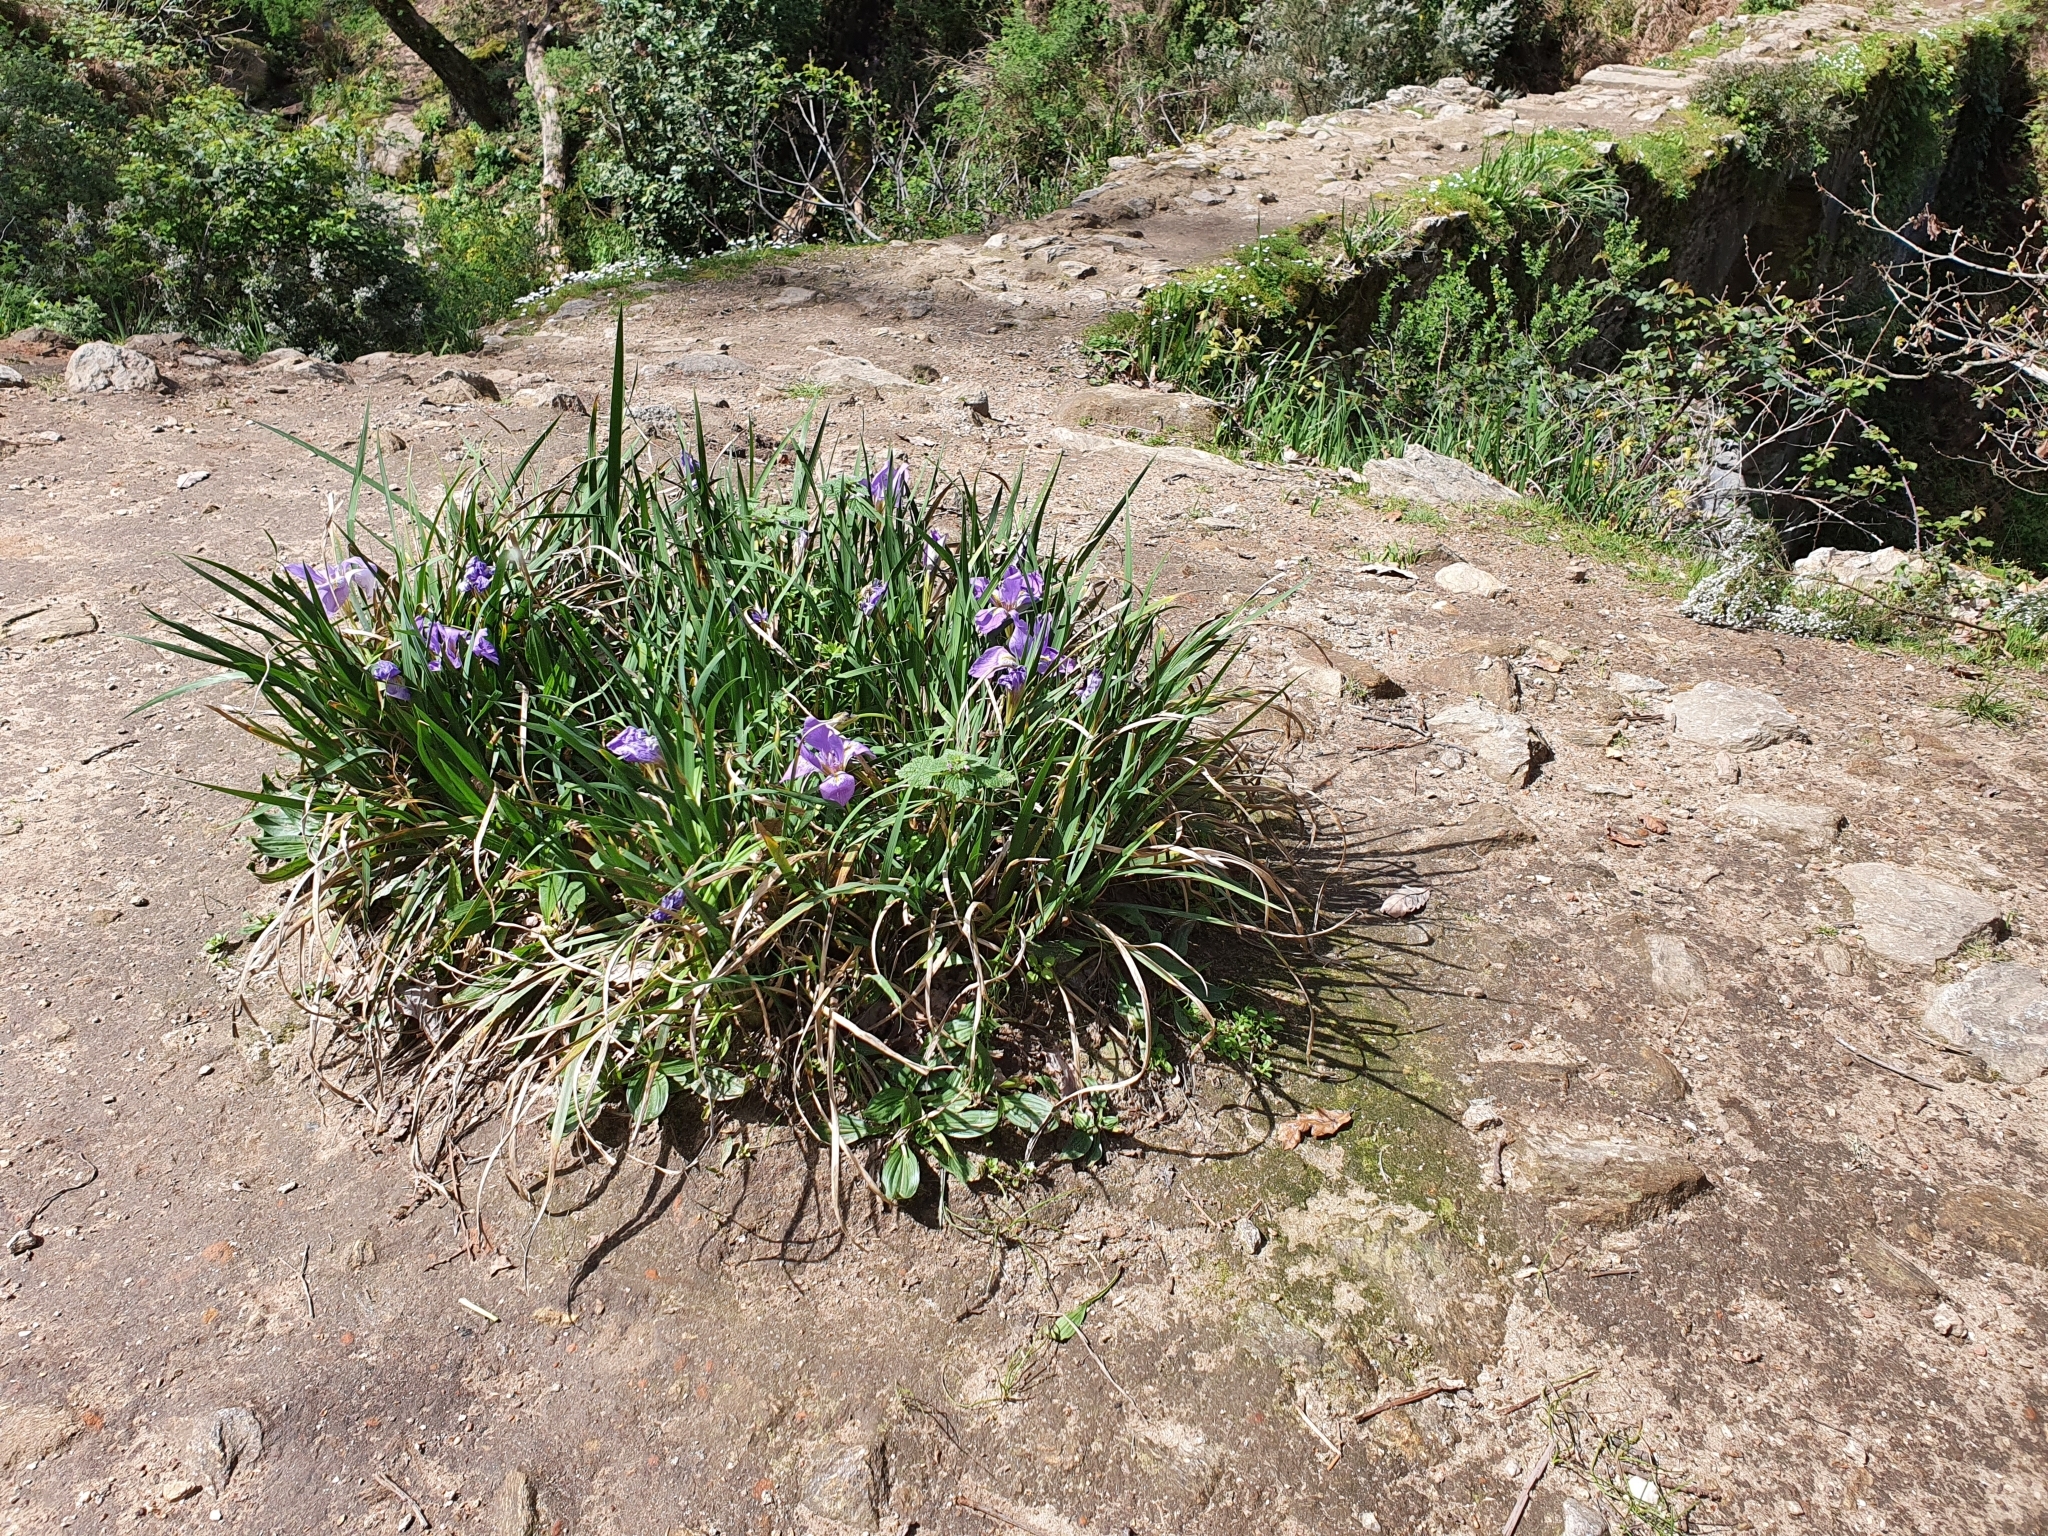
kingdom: Plantae
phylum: Tracheophyta
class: Liliopsida
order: Asparagales
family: Iridaceae
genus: Iris
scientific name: Iris unguicularis
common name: Algerian iris
